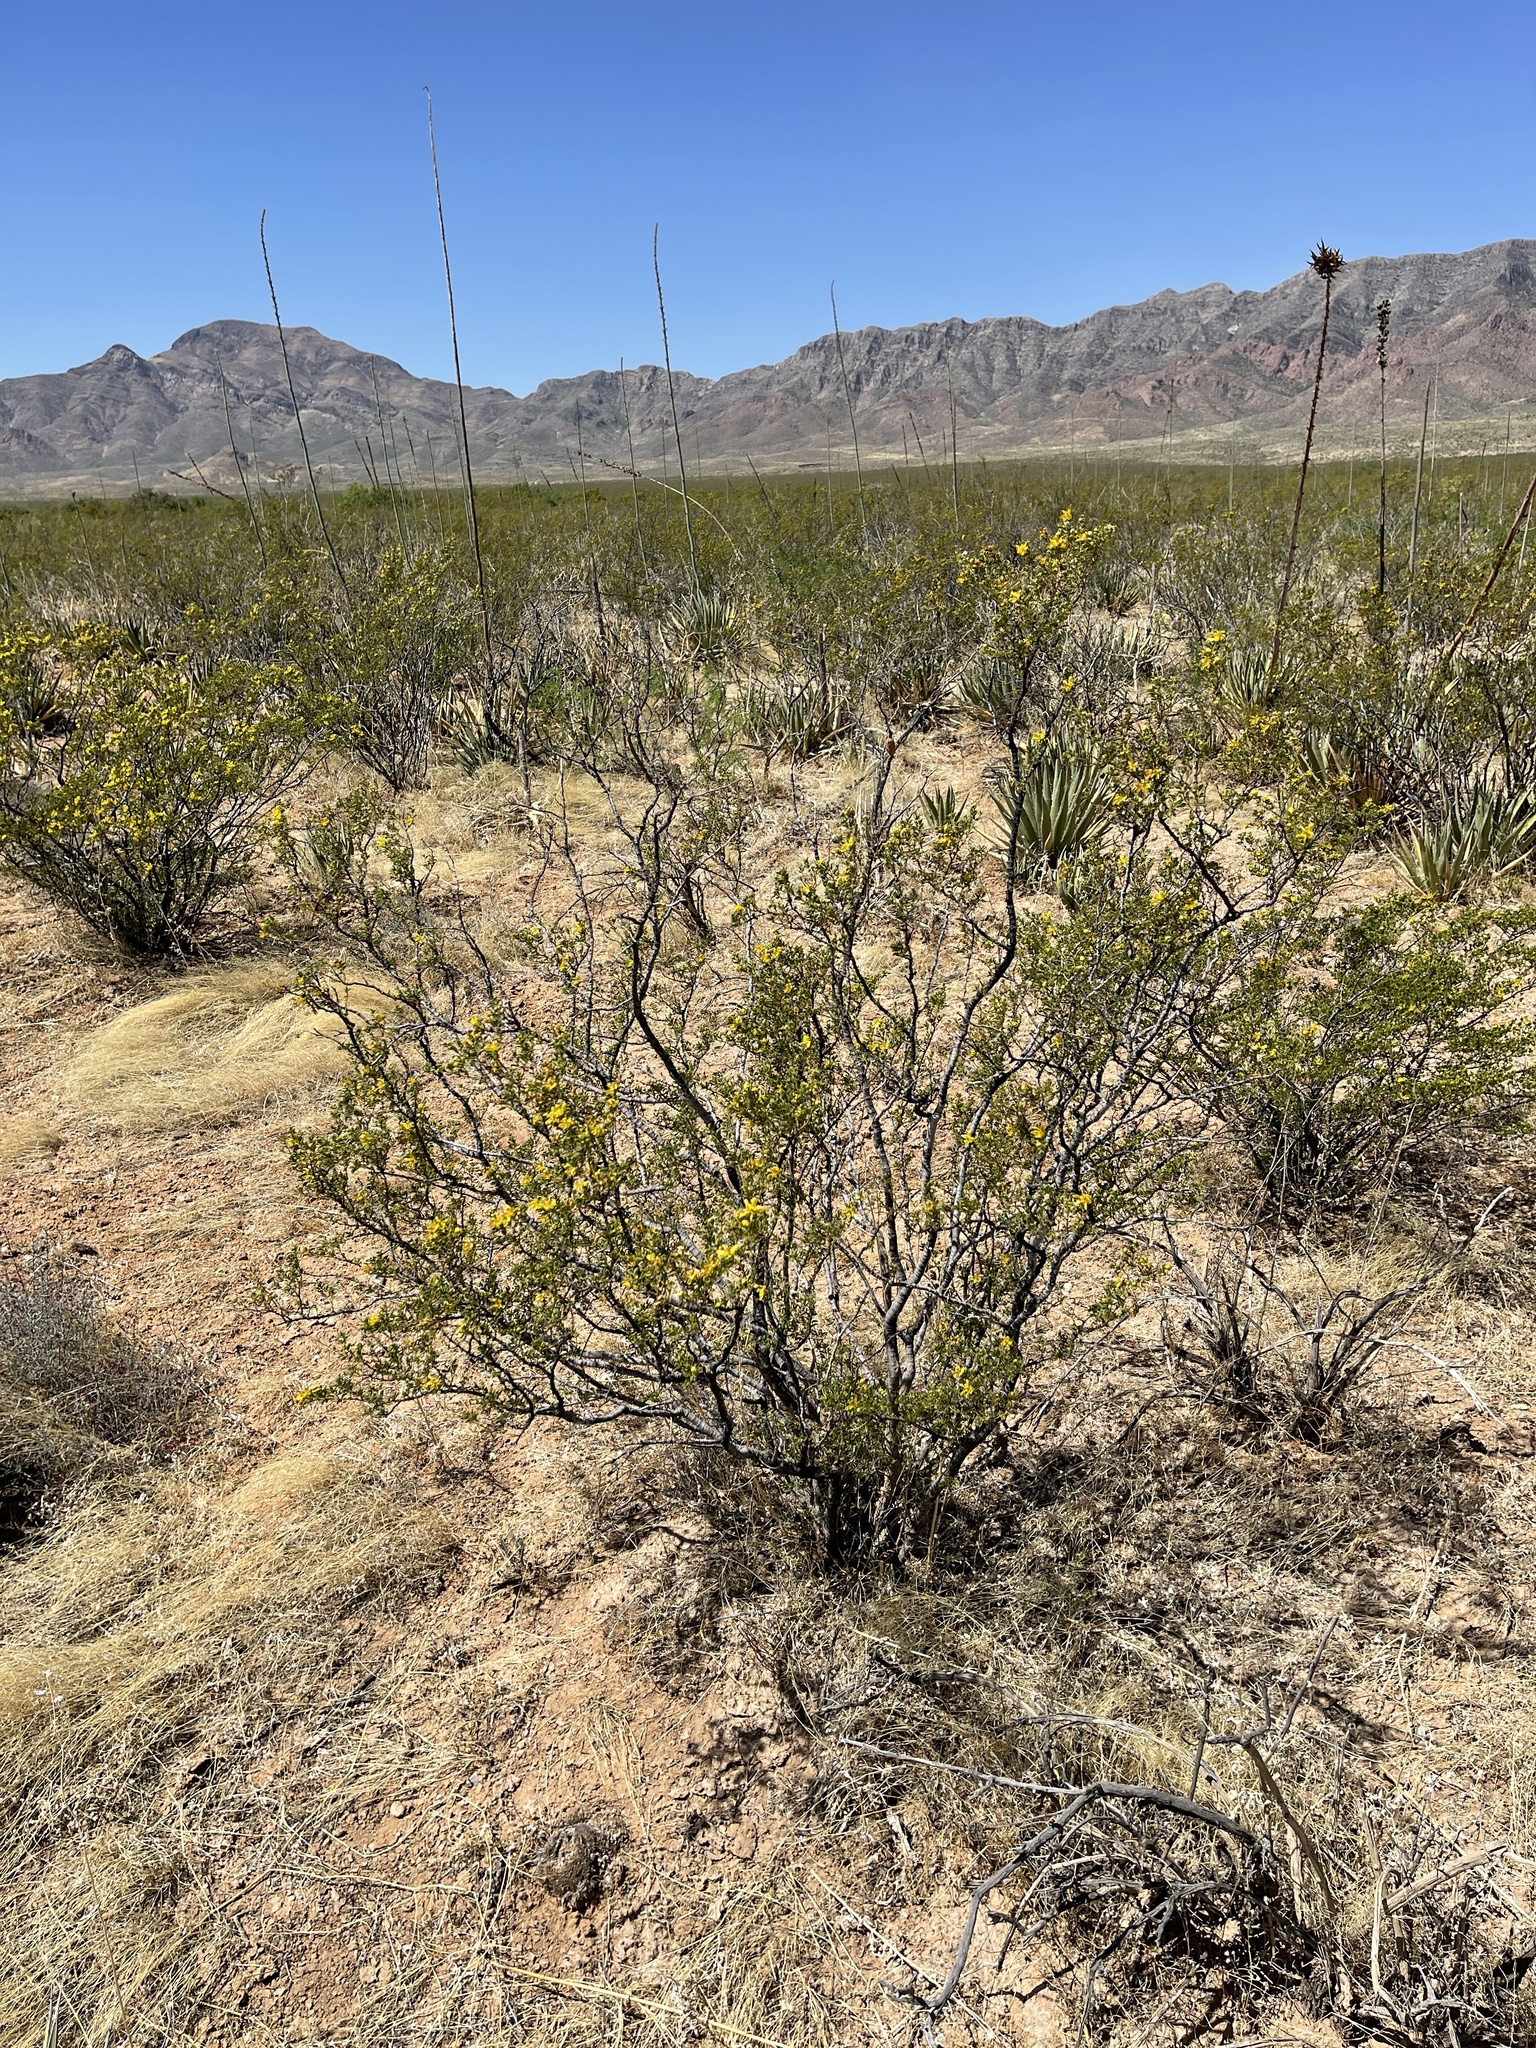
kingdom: Plantae
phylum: Tracheophyta
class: Magnoliopsida
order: Zygophyllales
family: Zygophyllaceae
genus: Larrea
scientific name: Larrea tridentata
